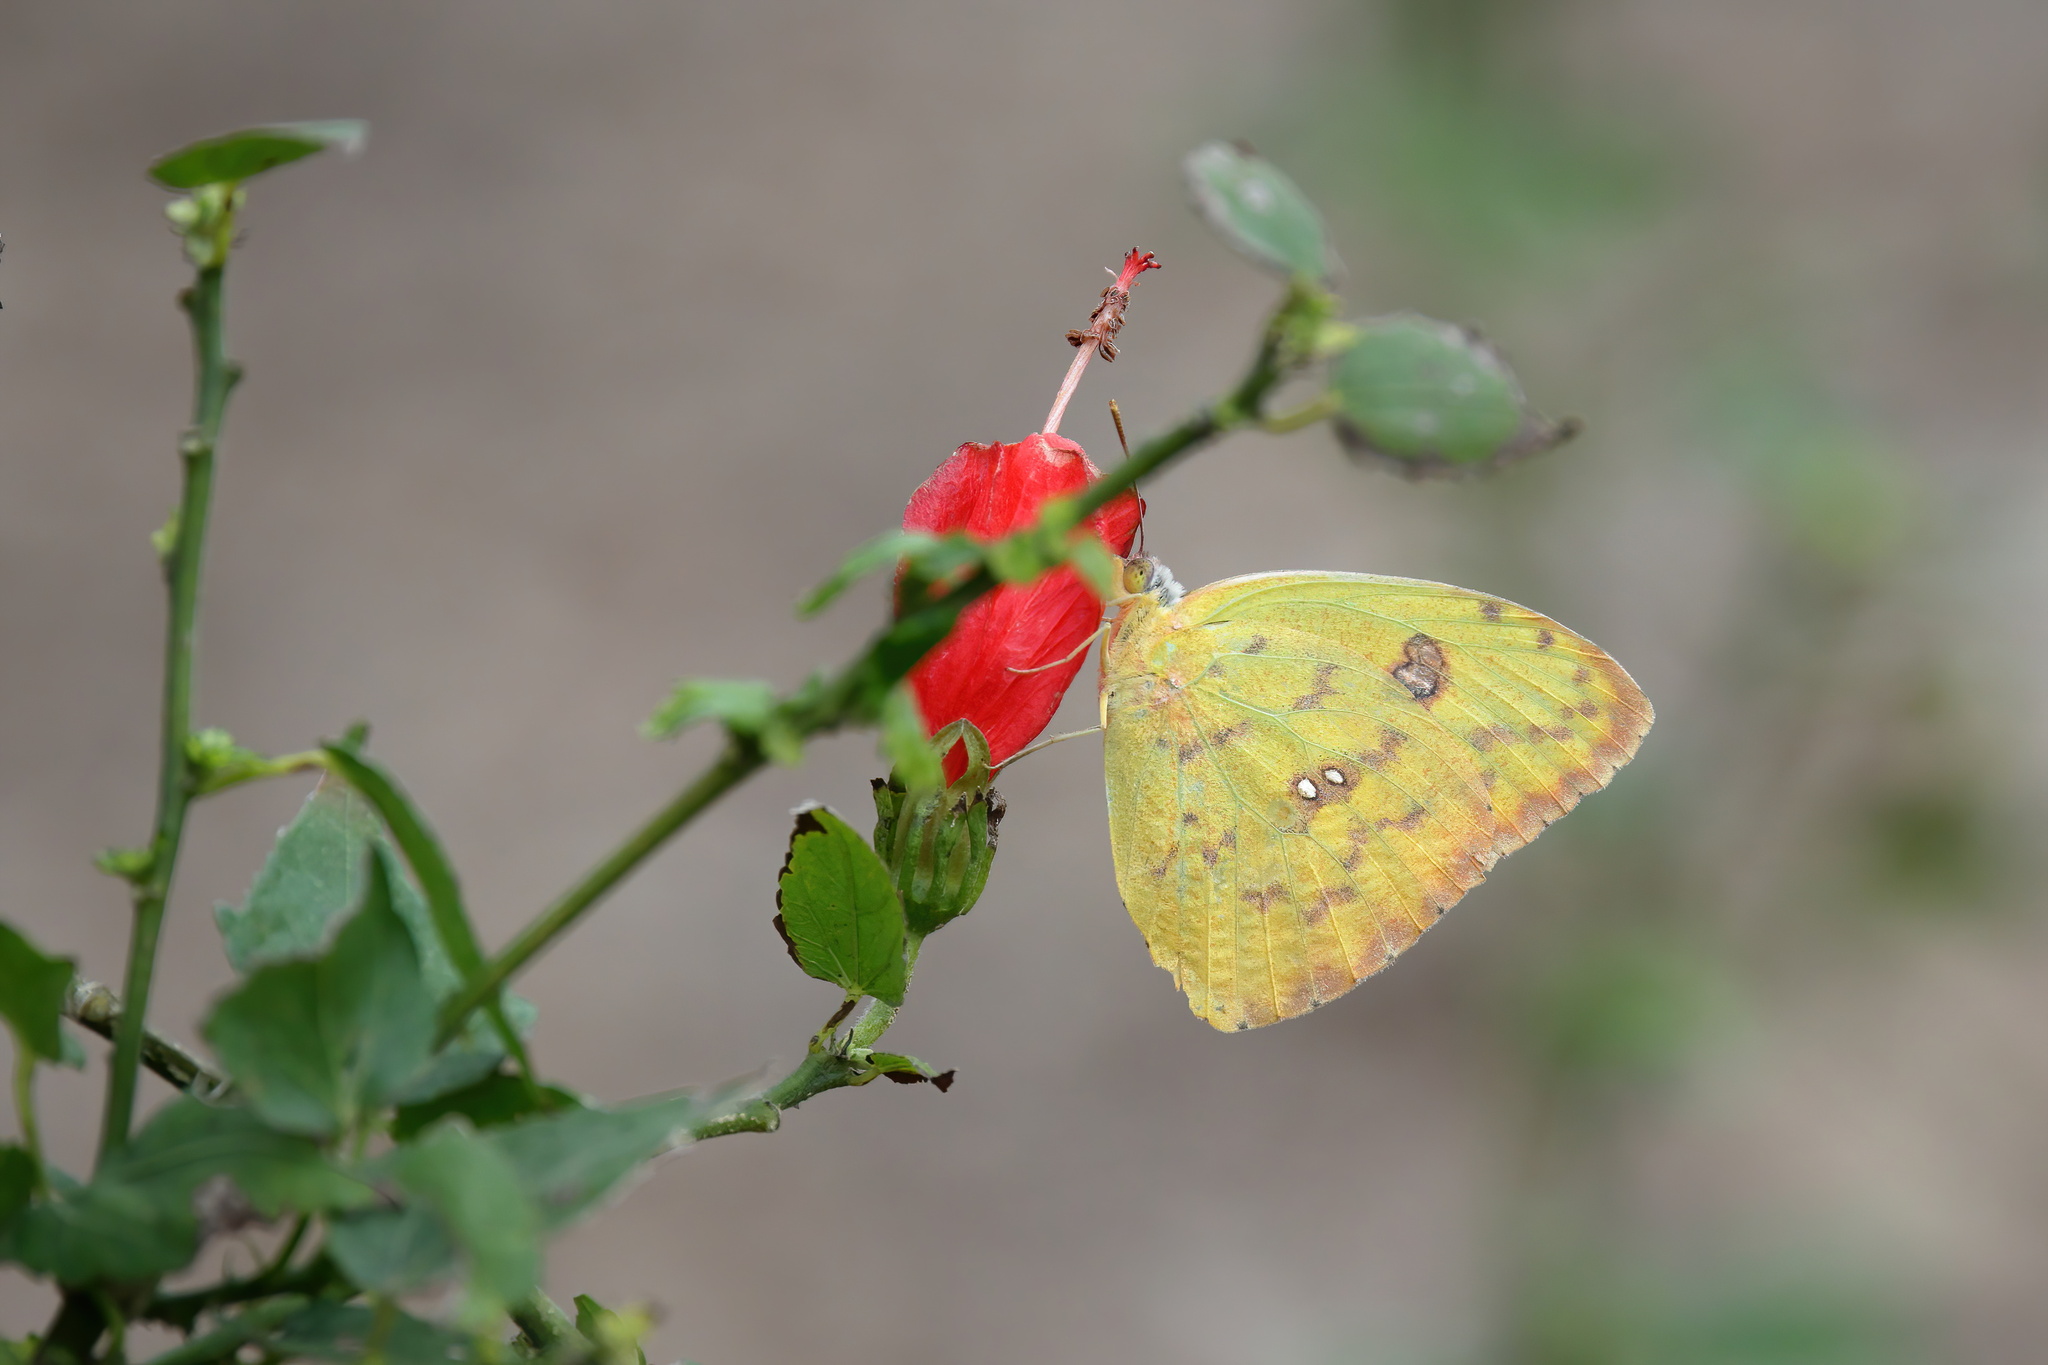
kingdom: Animalia
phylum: Arthropoda
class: Insecta
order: Lepidoptera
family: Pieridae
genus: Phoebis
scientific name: Phoebis marcellina
